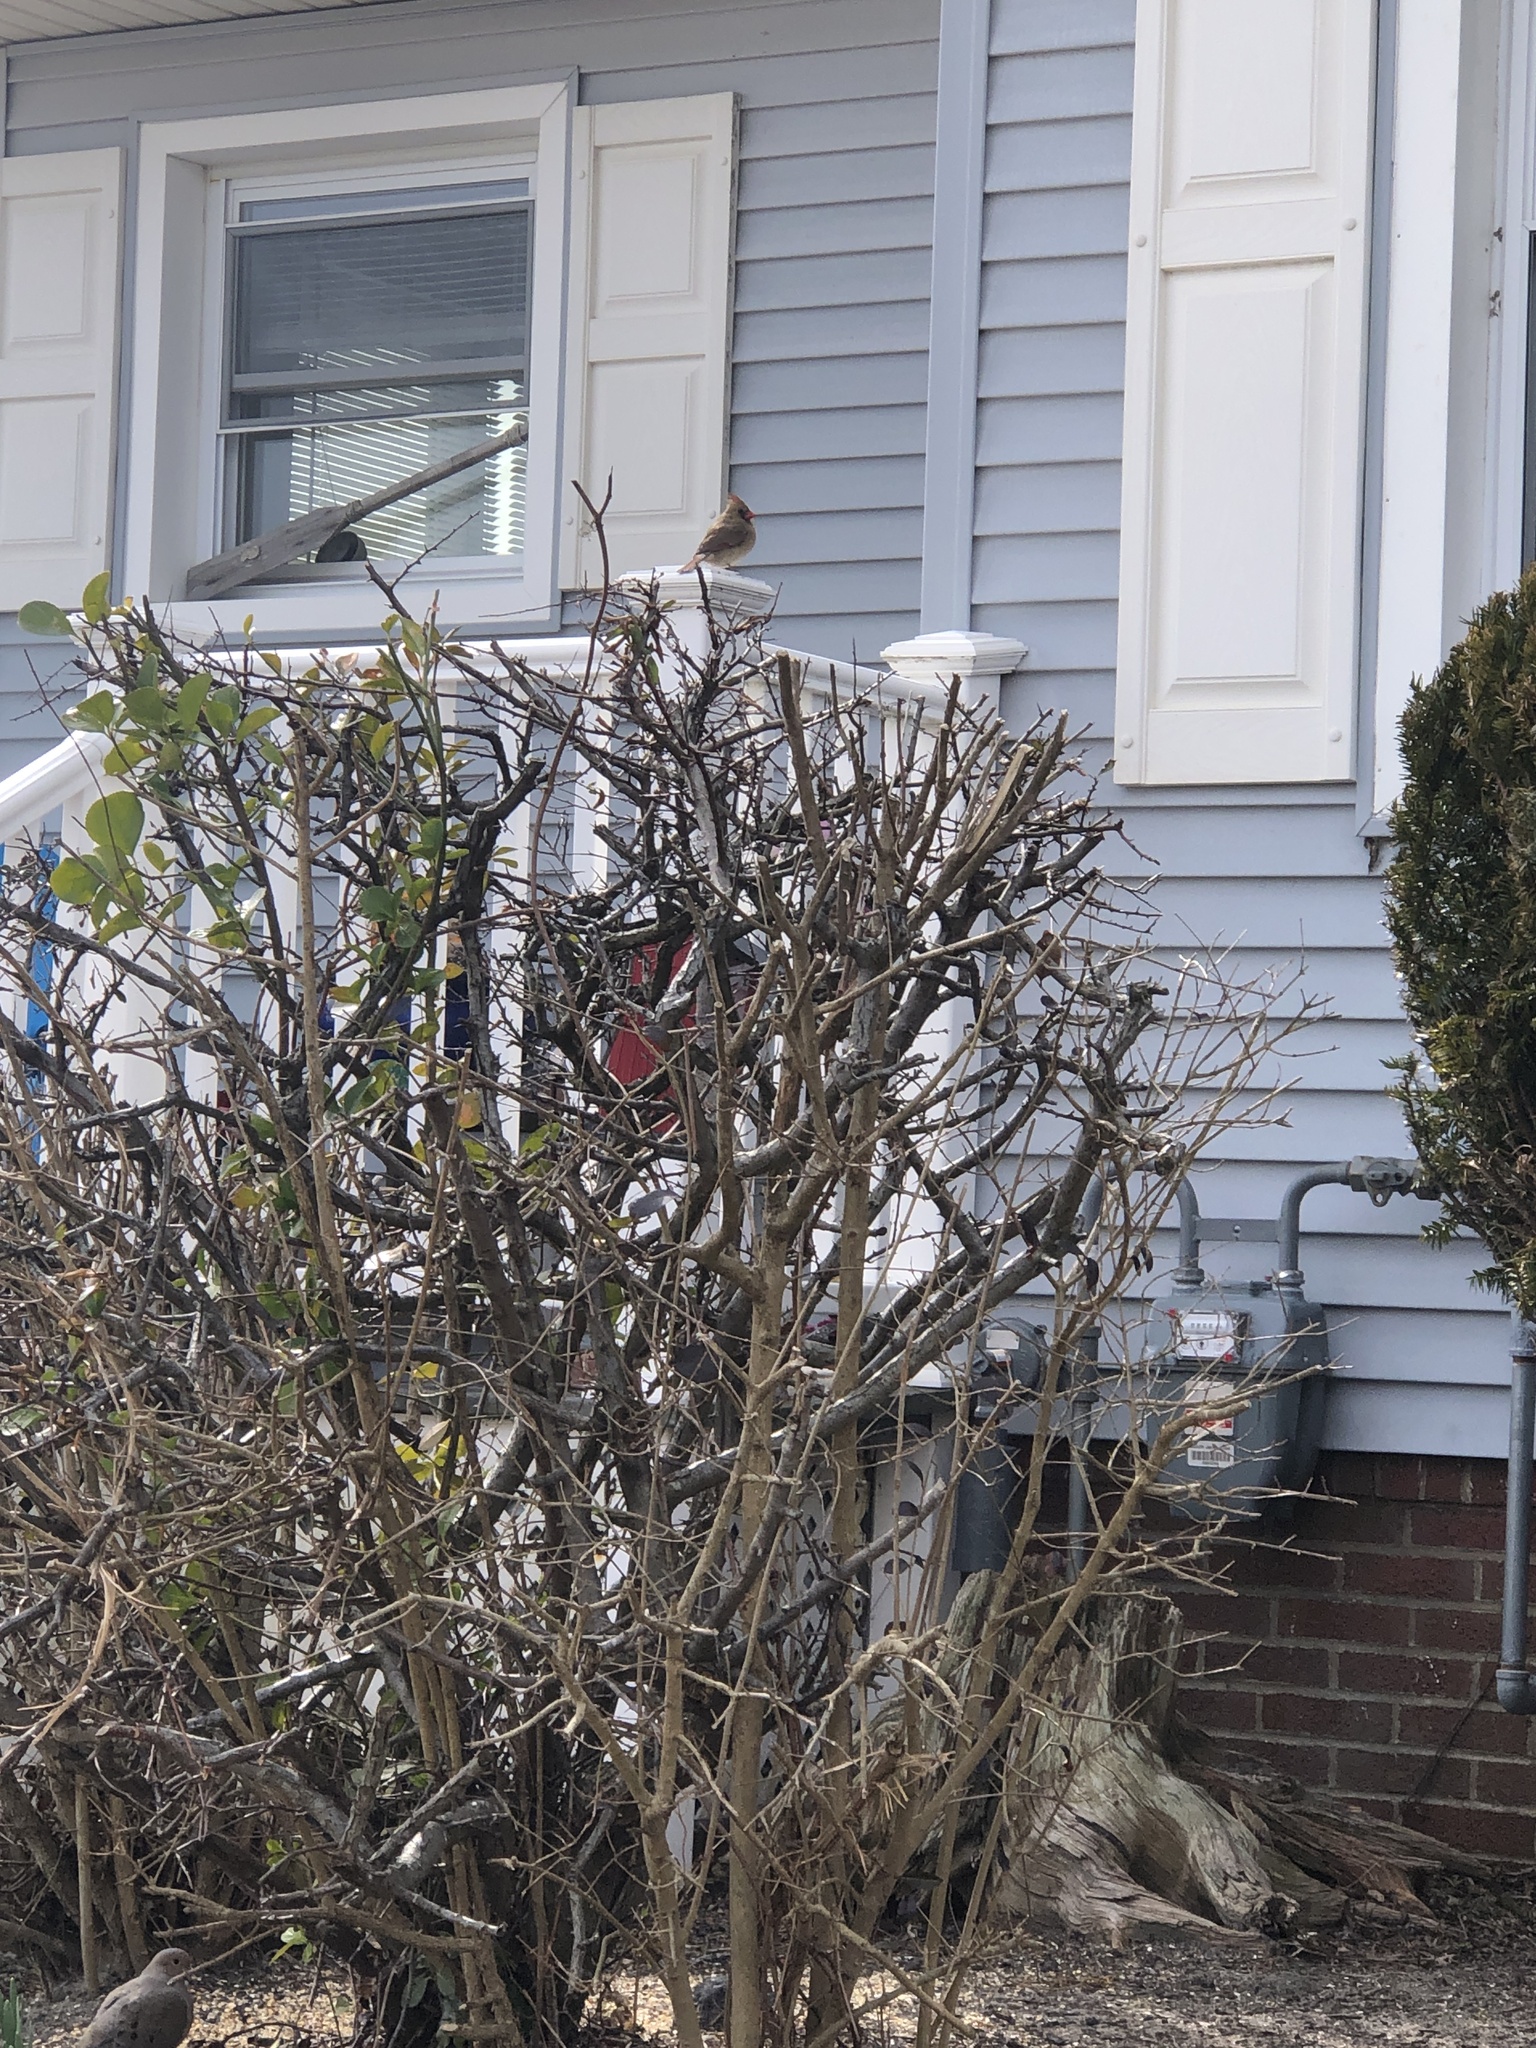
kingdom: Animalia
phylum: Chordata
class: Aves
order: Passeriformes
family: Cardinalidae
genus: Cardinalis
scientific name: Cardinalis cardinalis
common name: Northern cardinal
